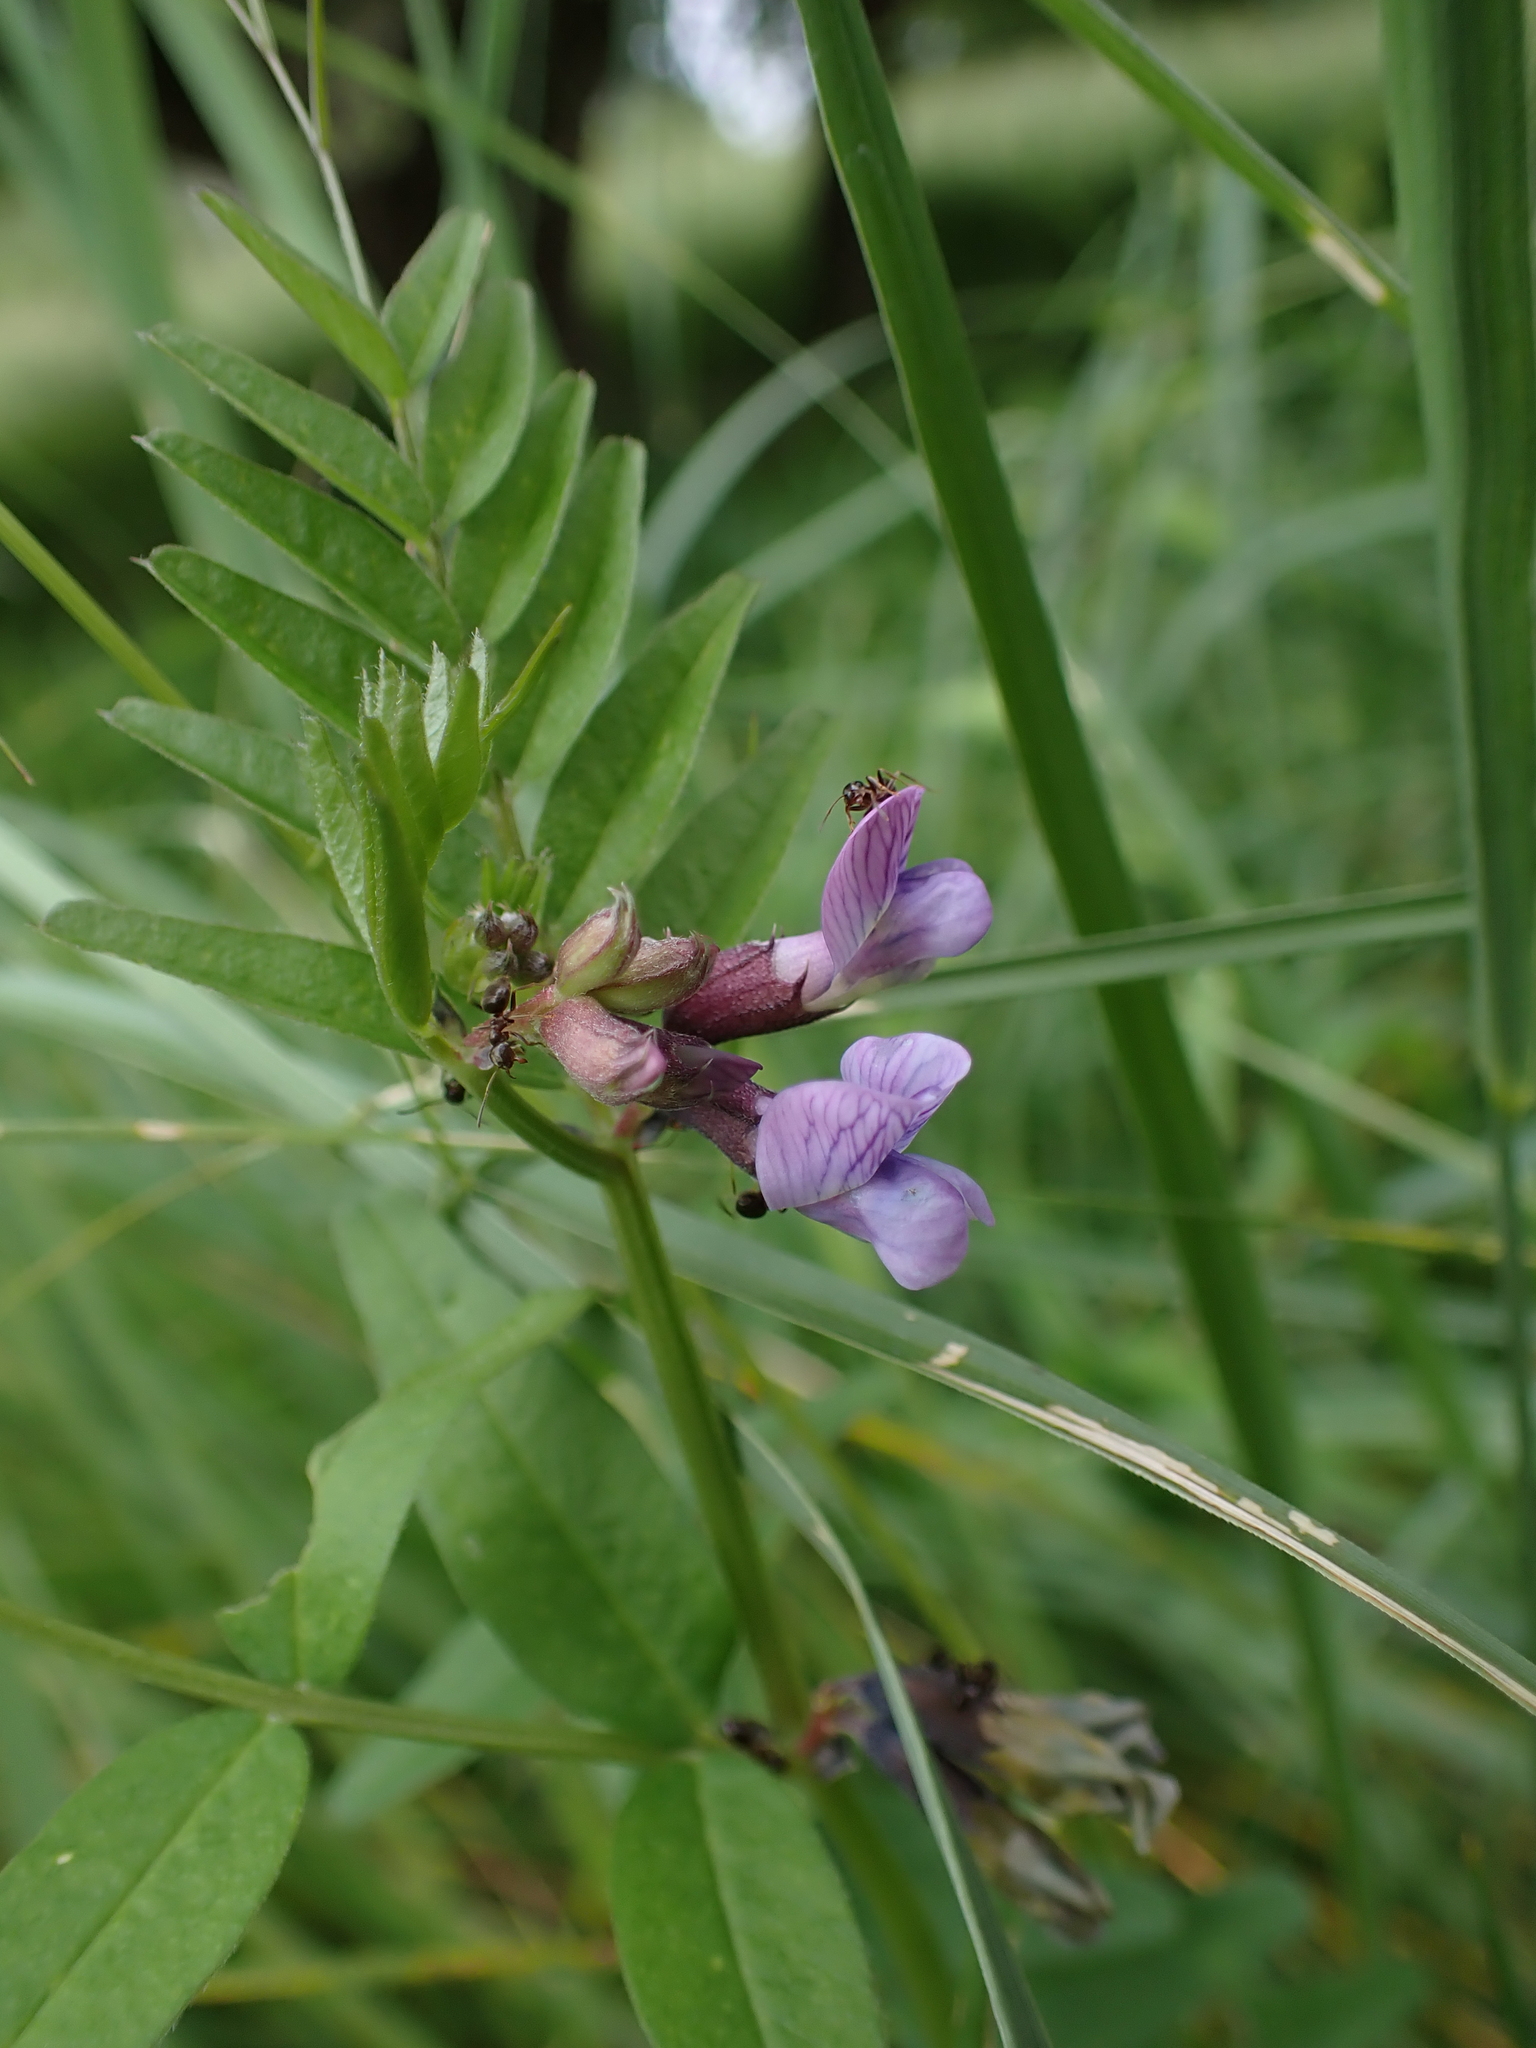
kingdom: Plantae
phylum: Tracheophyta
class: Magnoliopsida
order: Fabales
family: Fabaceae
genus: Vicia
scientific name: Vicia sepium
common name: Bush vetch
